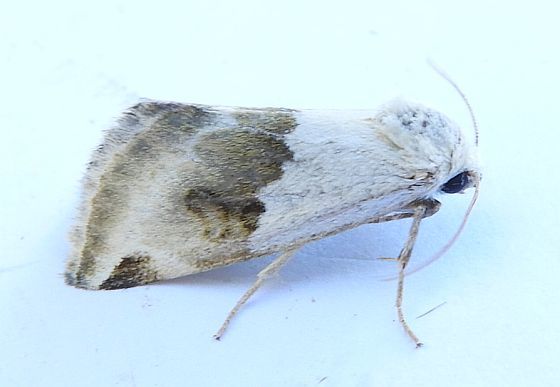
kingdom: Animalia
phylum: Arthropoda
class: Insecta
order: Lepidoptera
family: Noctuidae
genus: Plagiomimicus
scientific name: Plagiomimicus dimidiata
